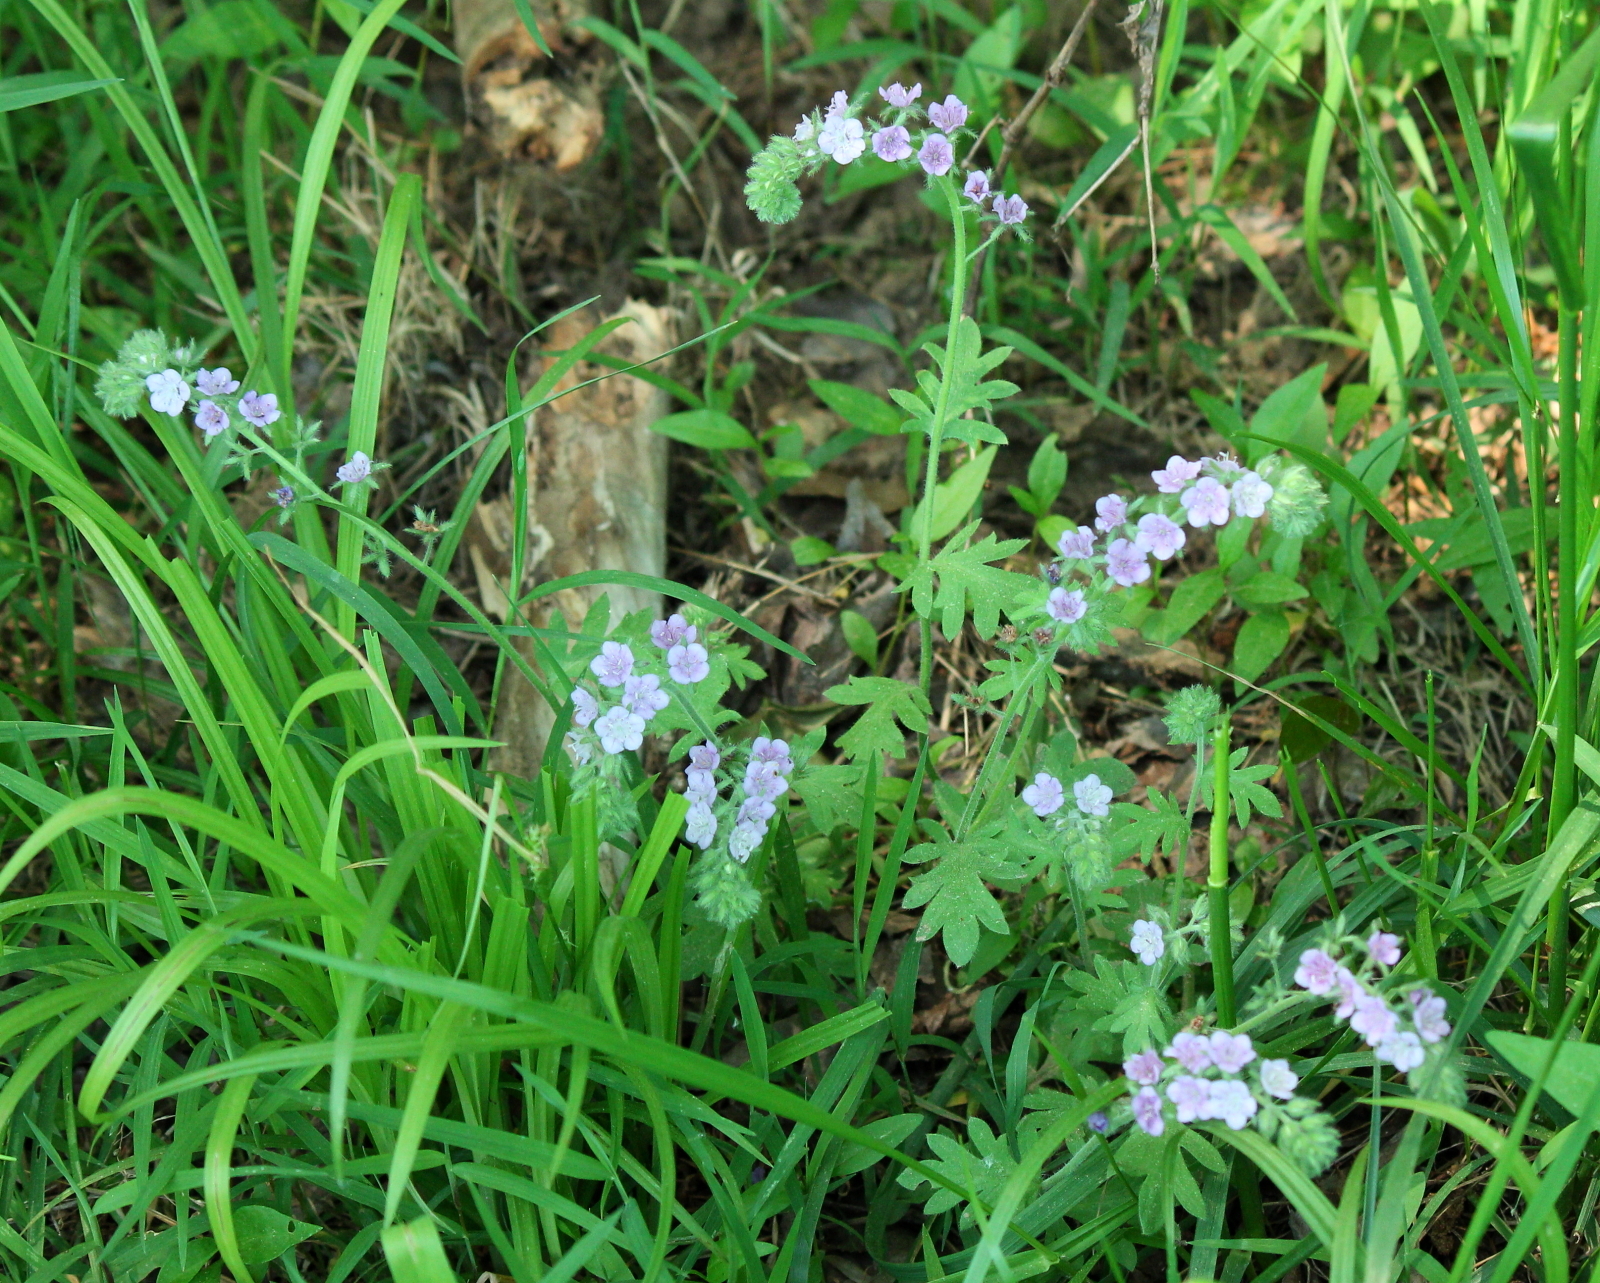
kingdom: Plantae
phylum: Tracheophyta
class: Magnoliopsida
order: Boraginales
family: Hydrophyllaceae
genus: Phacelia
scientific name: Phacelia hirsuta
